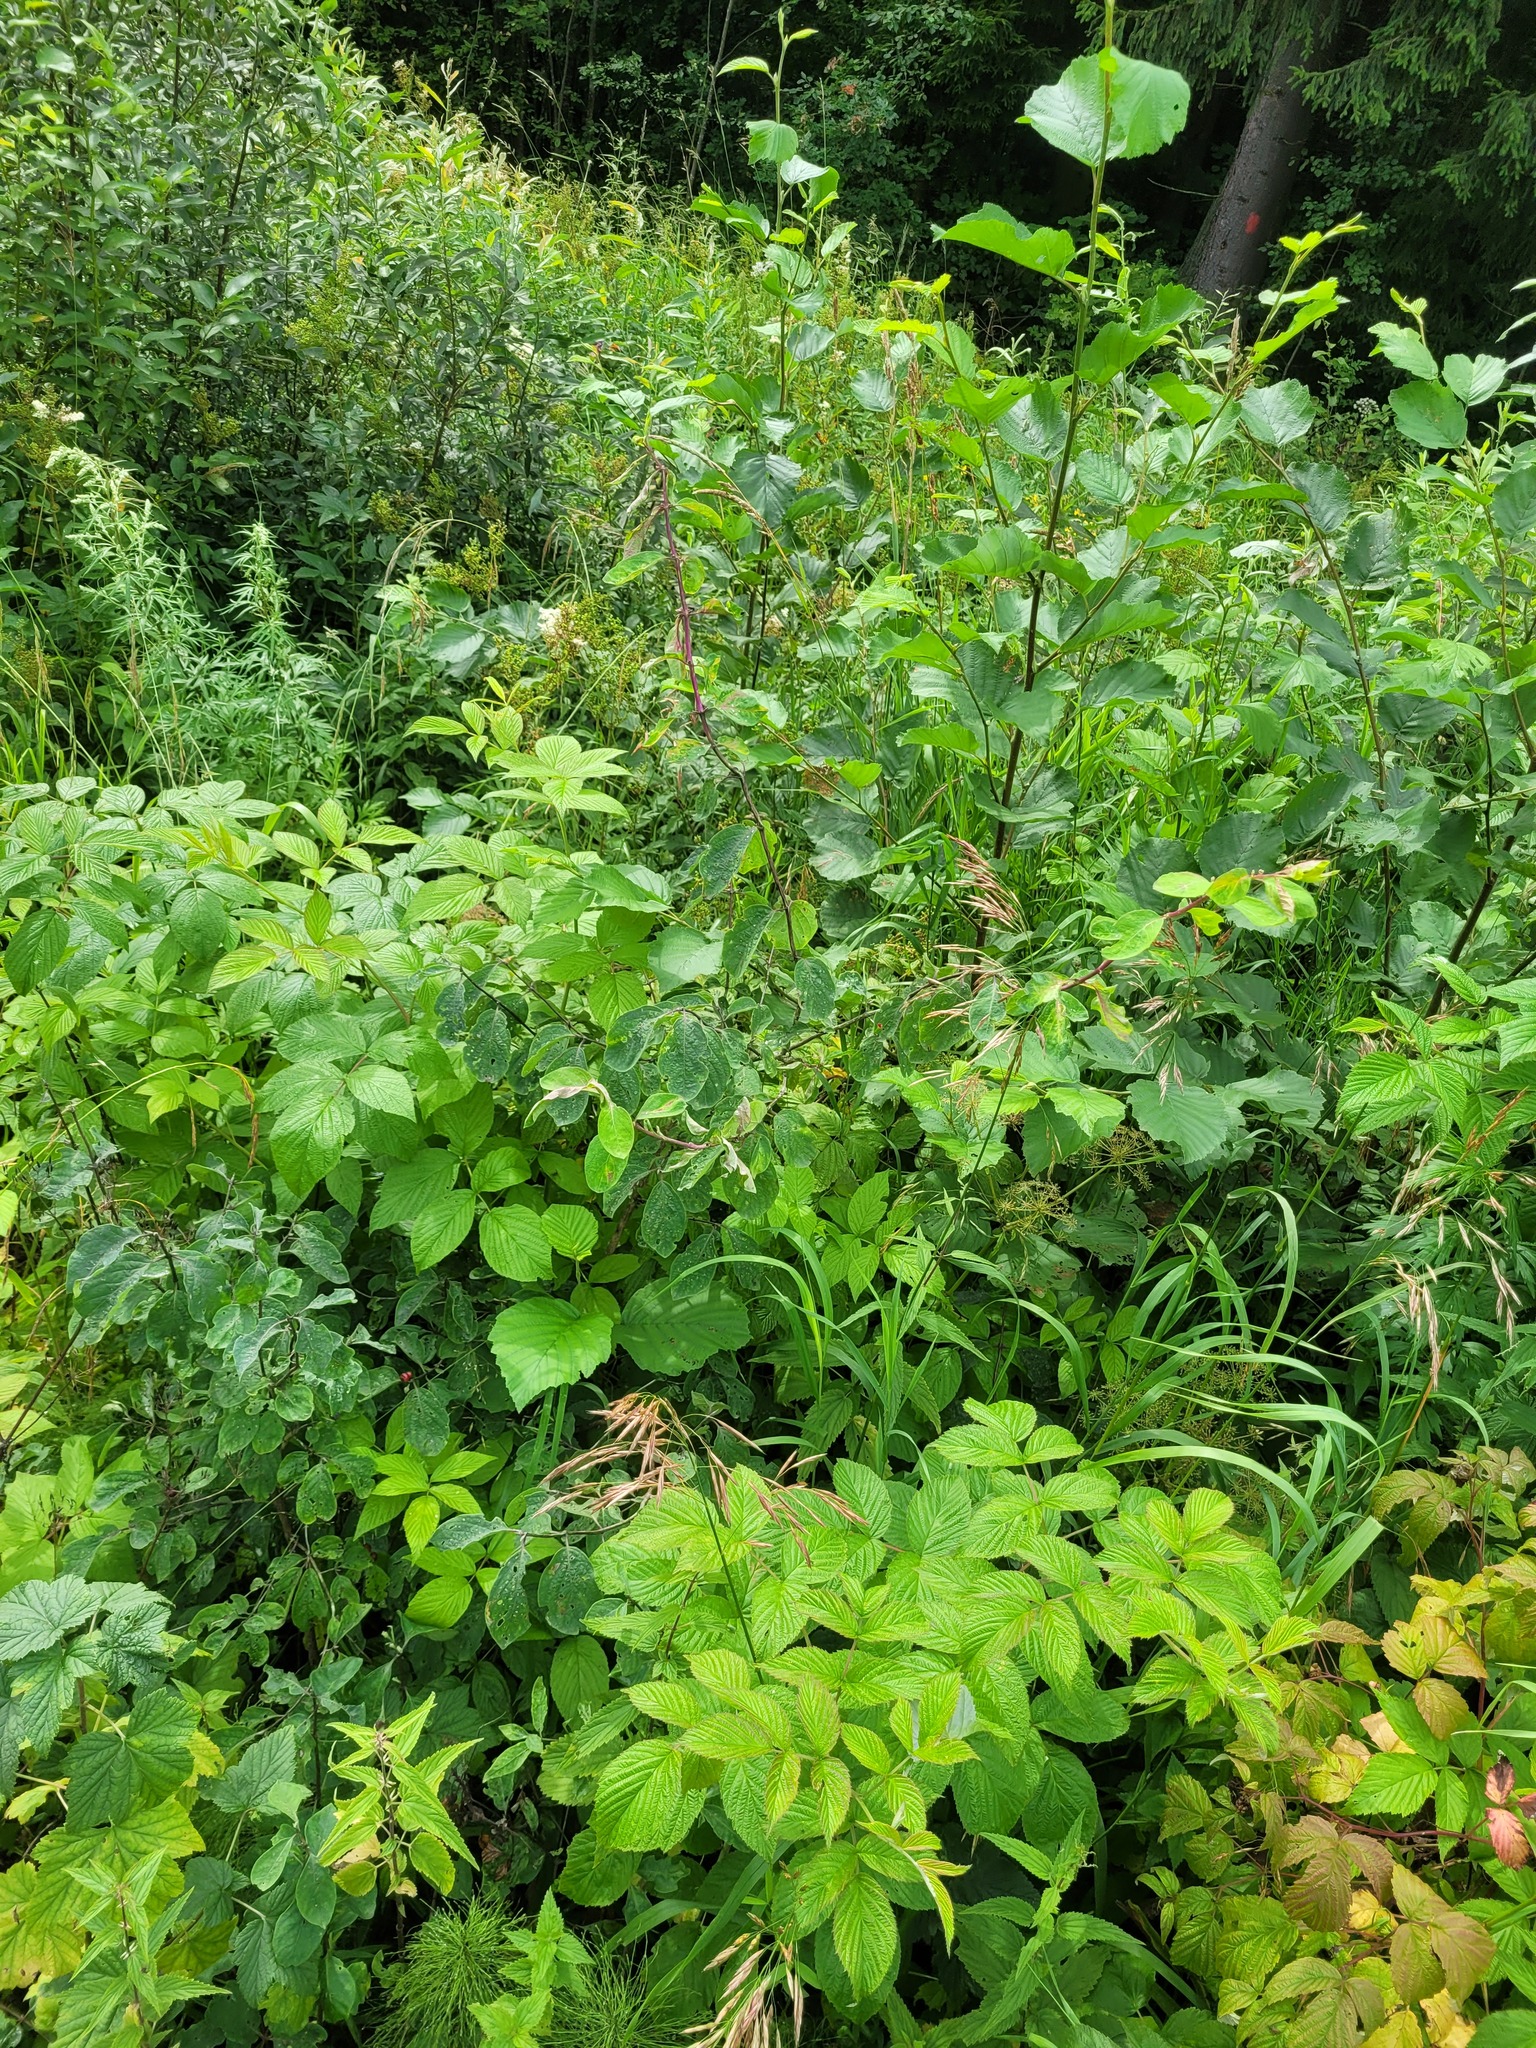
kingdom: Plantae
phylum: Tracheophyta
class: Magnoliopsida
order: Dipsacales
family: Caprifoliaceae
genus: Lonicera
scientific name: Lonicera xylosteum
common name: Fly honeysuckle
